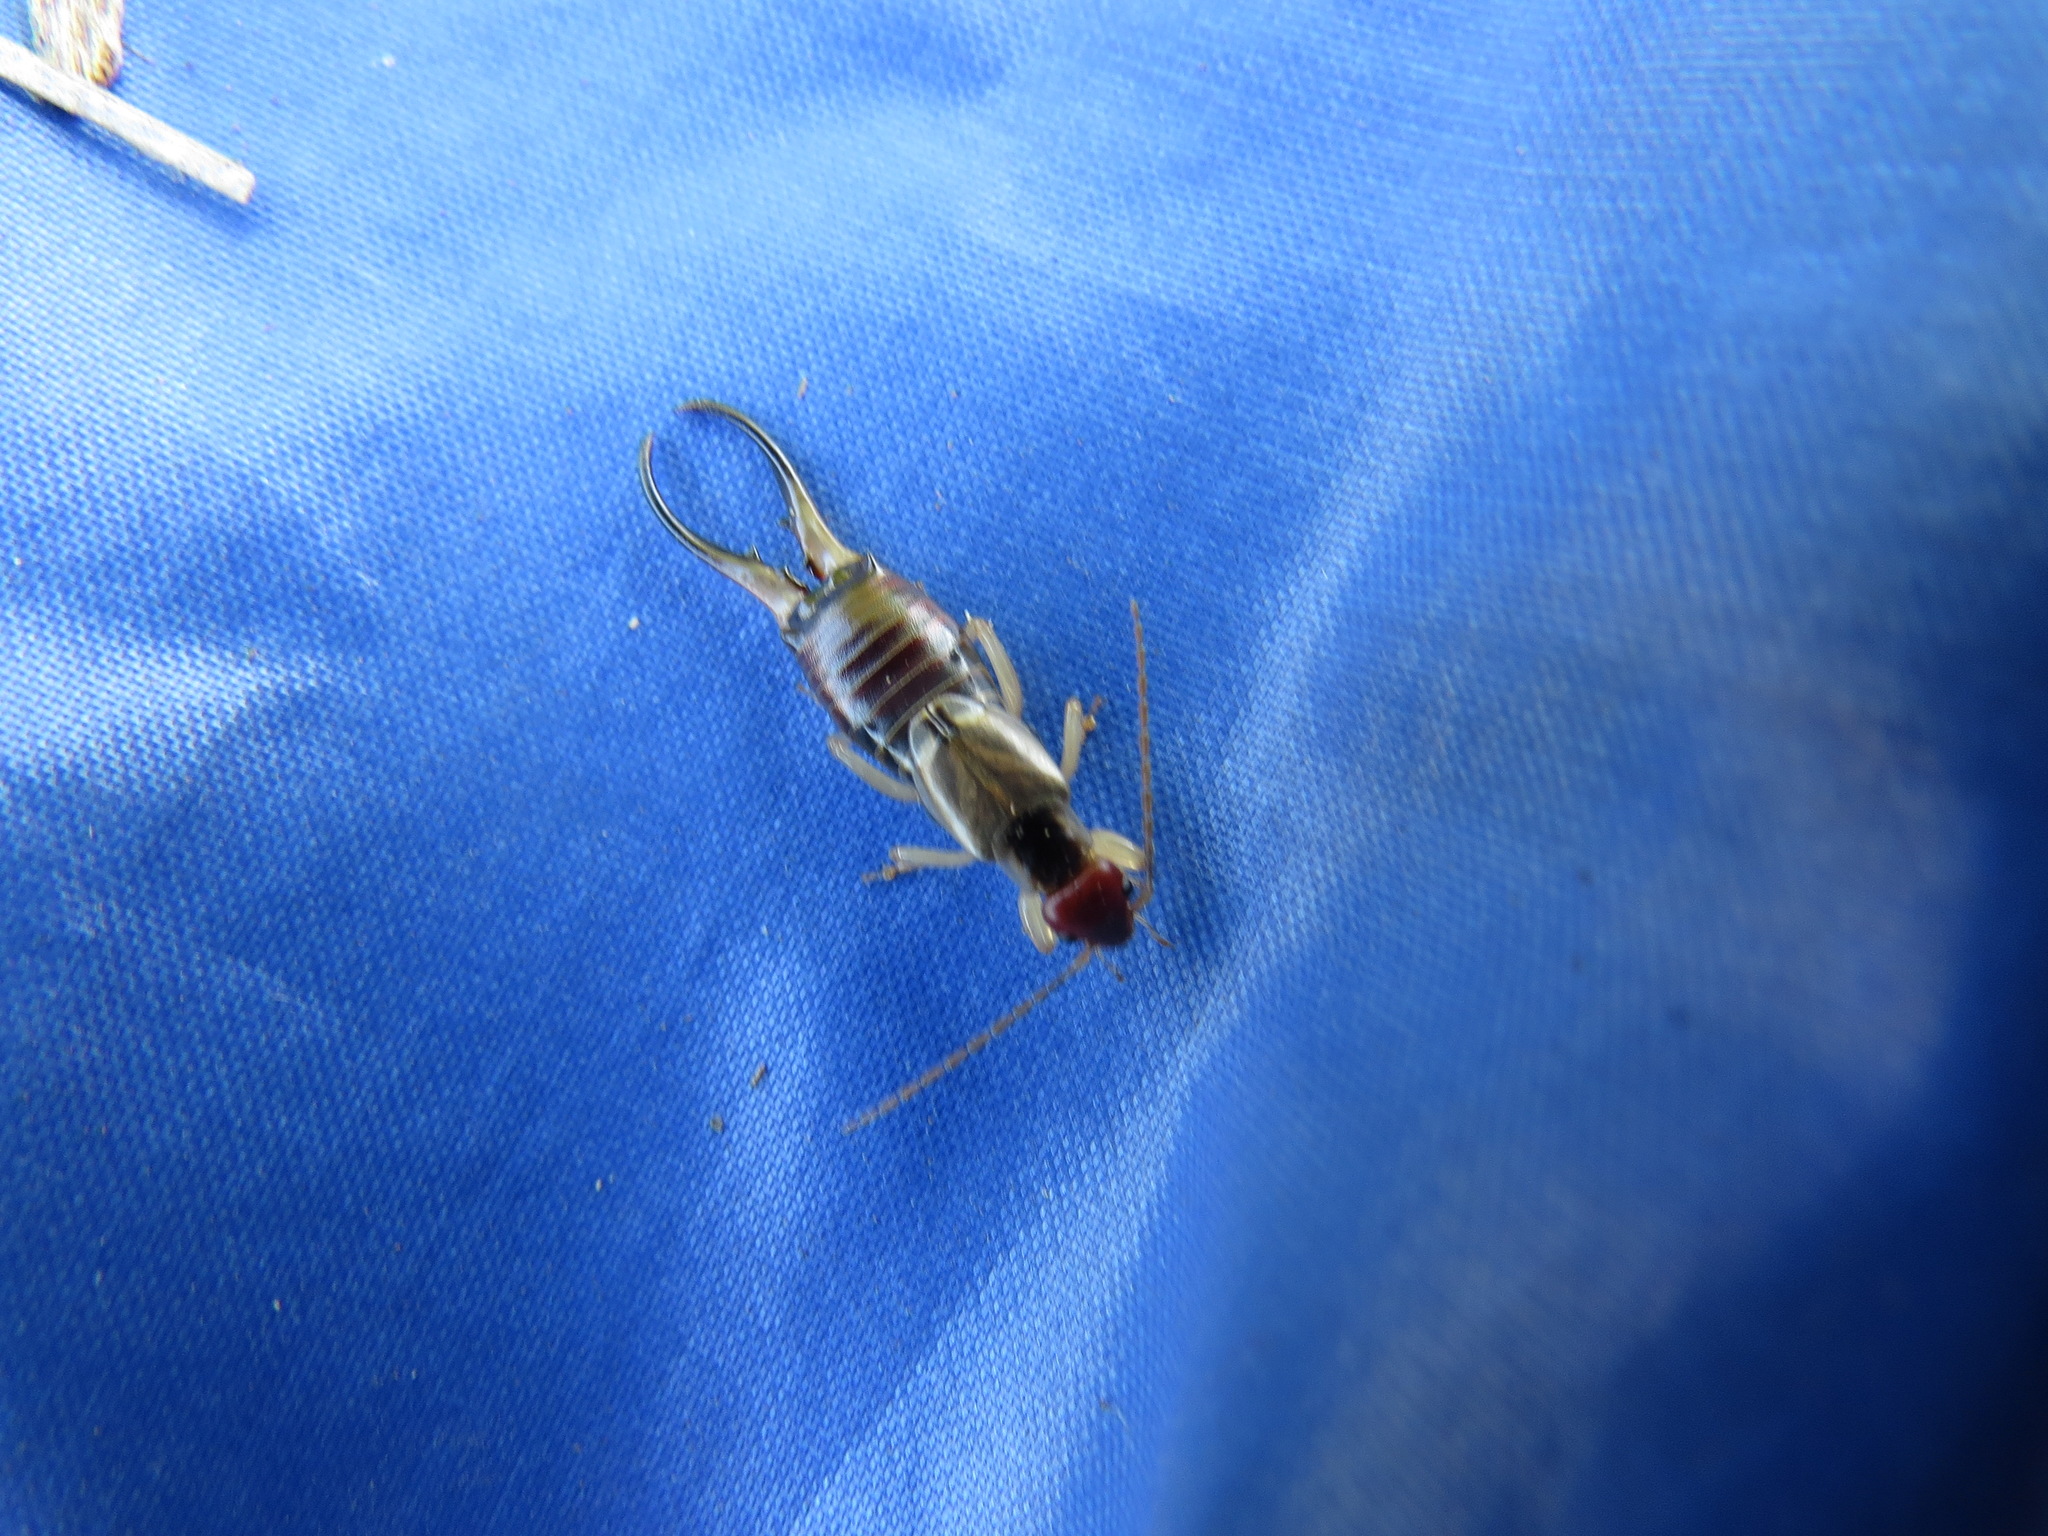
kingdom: Animalia
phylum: Arthropoda
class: Insecta
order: Dermaptera
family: Forficulidae
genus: Forficula
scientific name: Forficula
